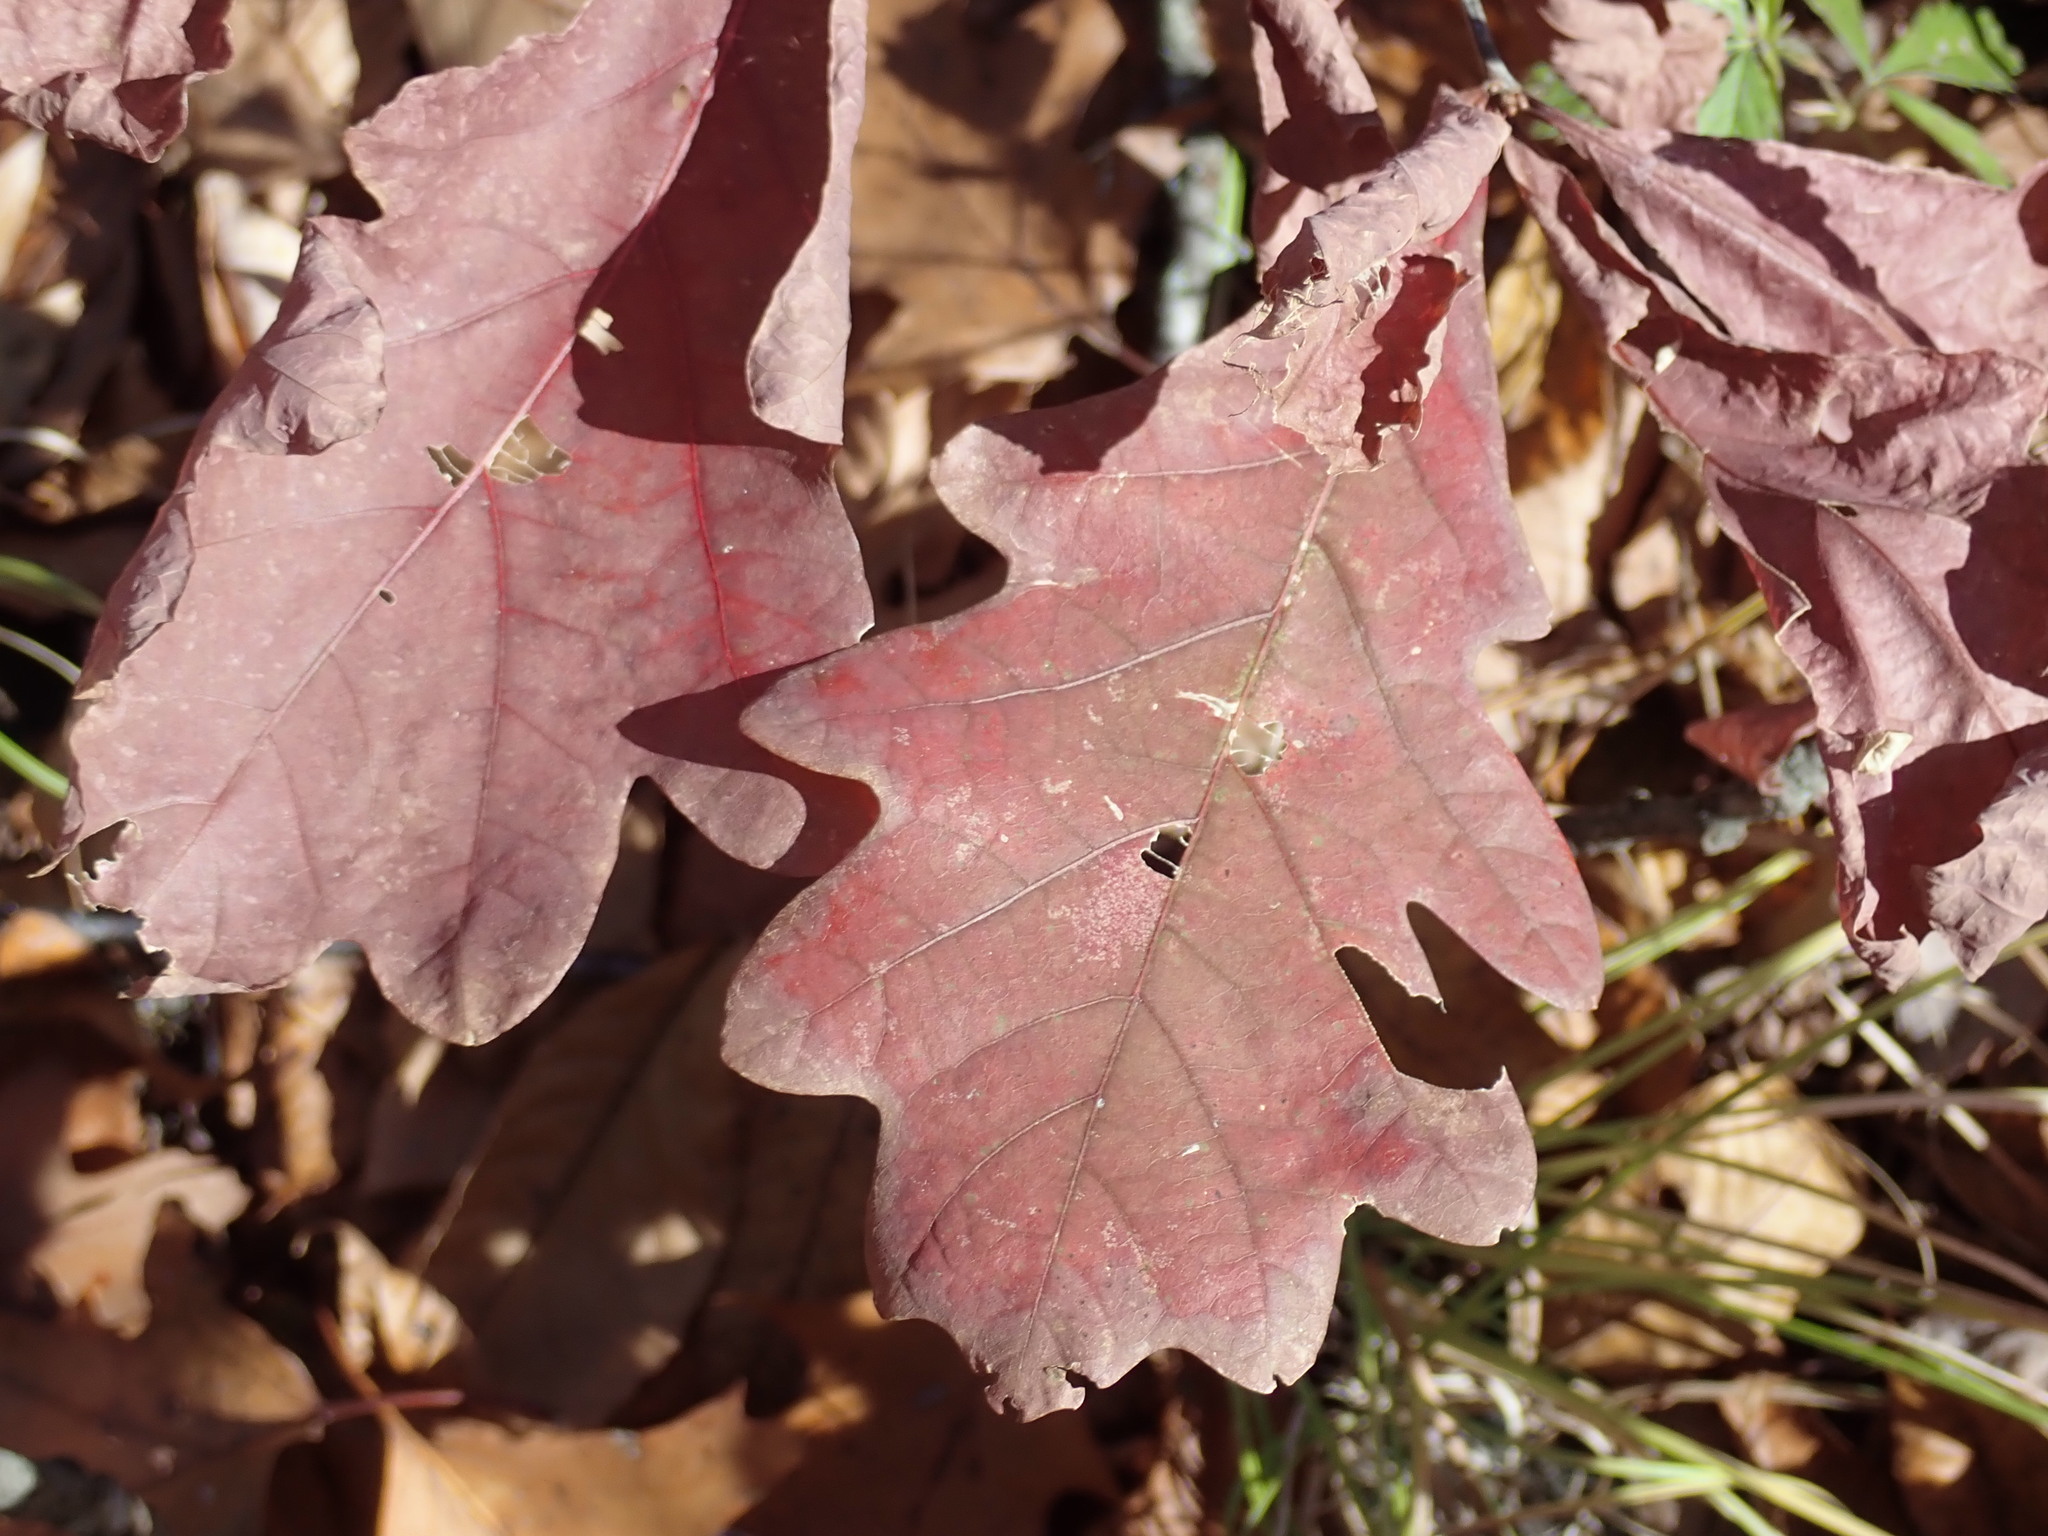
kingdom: Plantae
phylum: Tracheophyta
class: Magnoliopsida
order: Fagales
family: Fagaceae
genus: Quercus
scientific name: Quercus alba
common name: White oak
